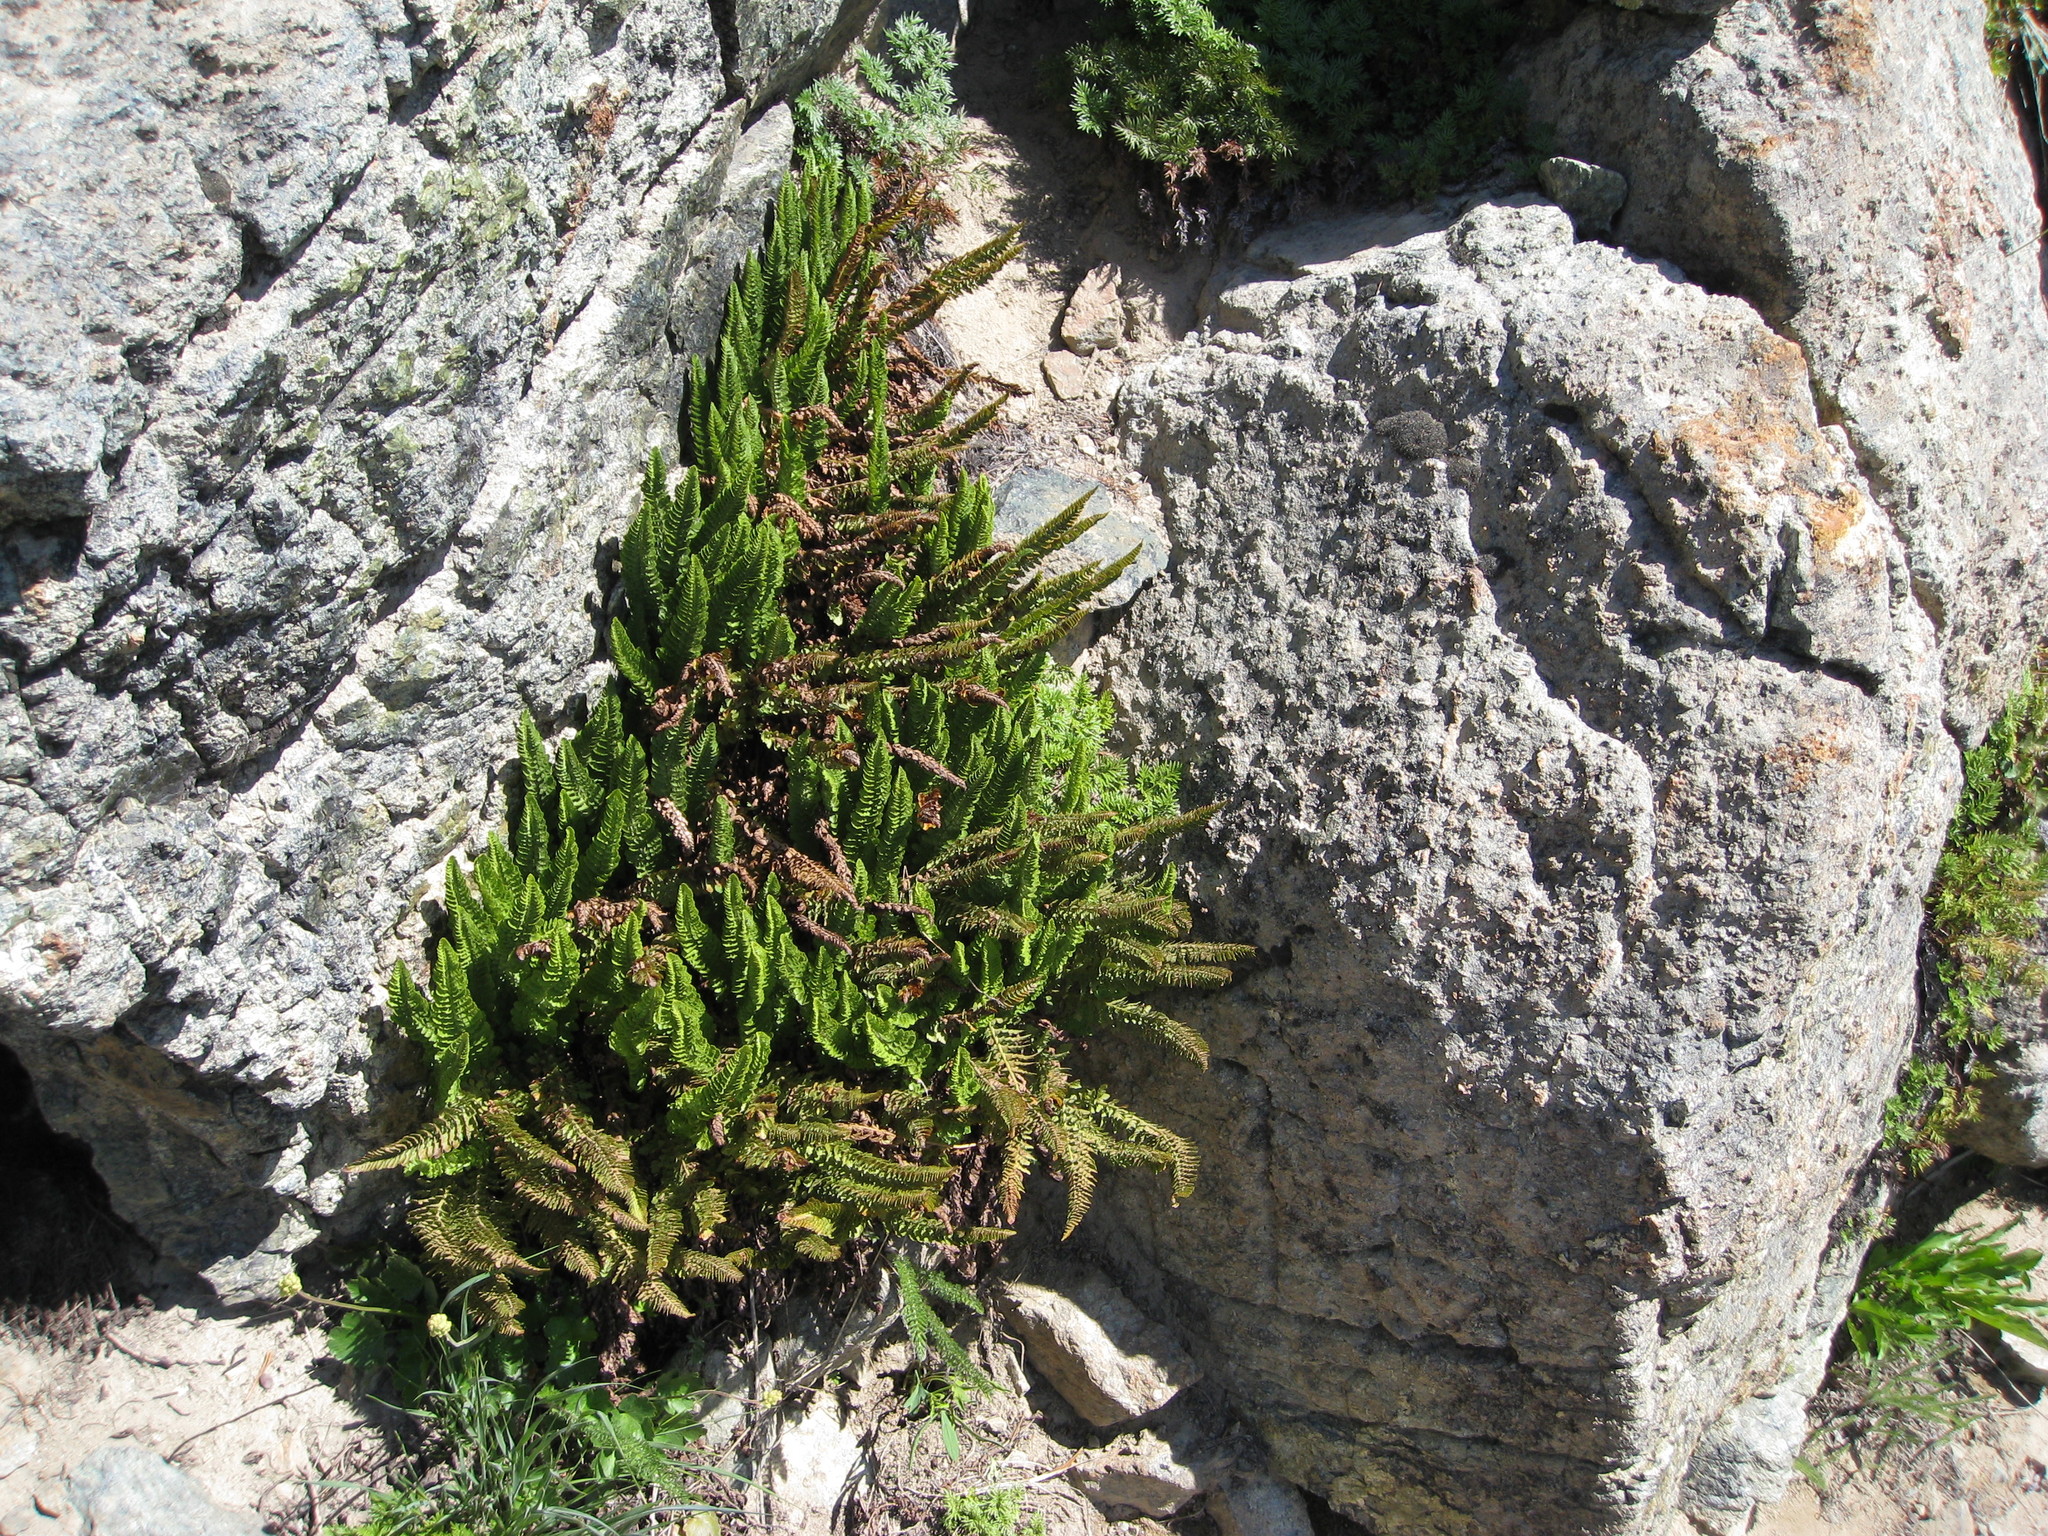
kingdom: Plantae
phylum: Tracheophyta
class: Polypodiopsida
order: Polypodiales
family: Dryopteridaceae
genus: Polystichum
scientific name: Polystichum lemmonii
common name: Lemmon's holly fern
